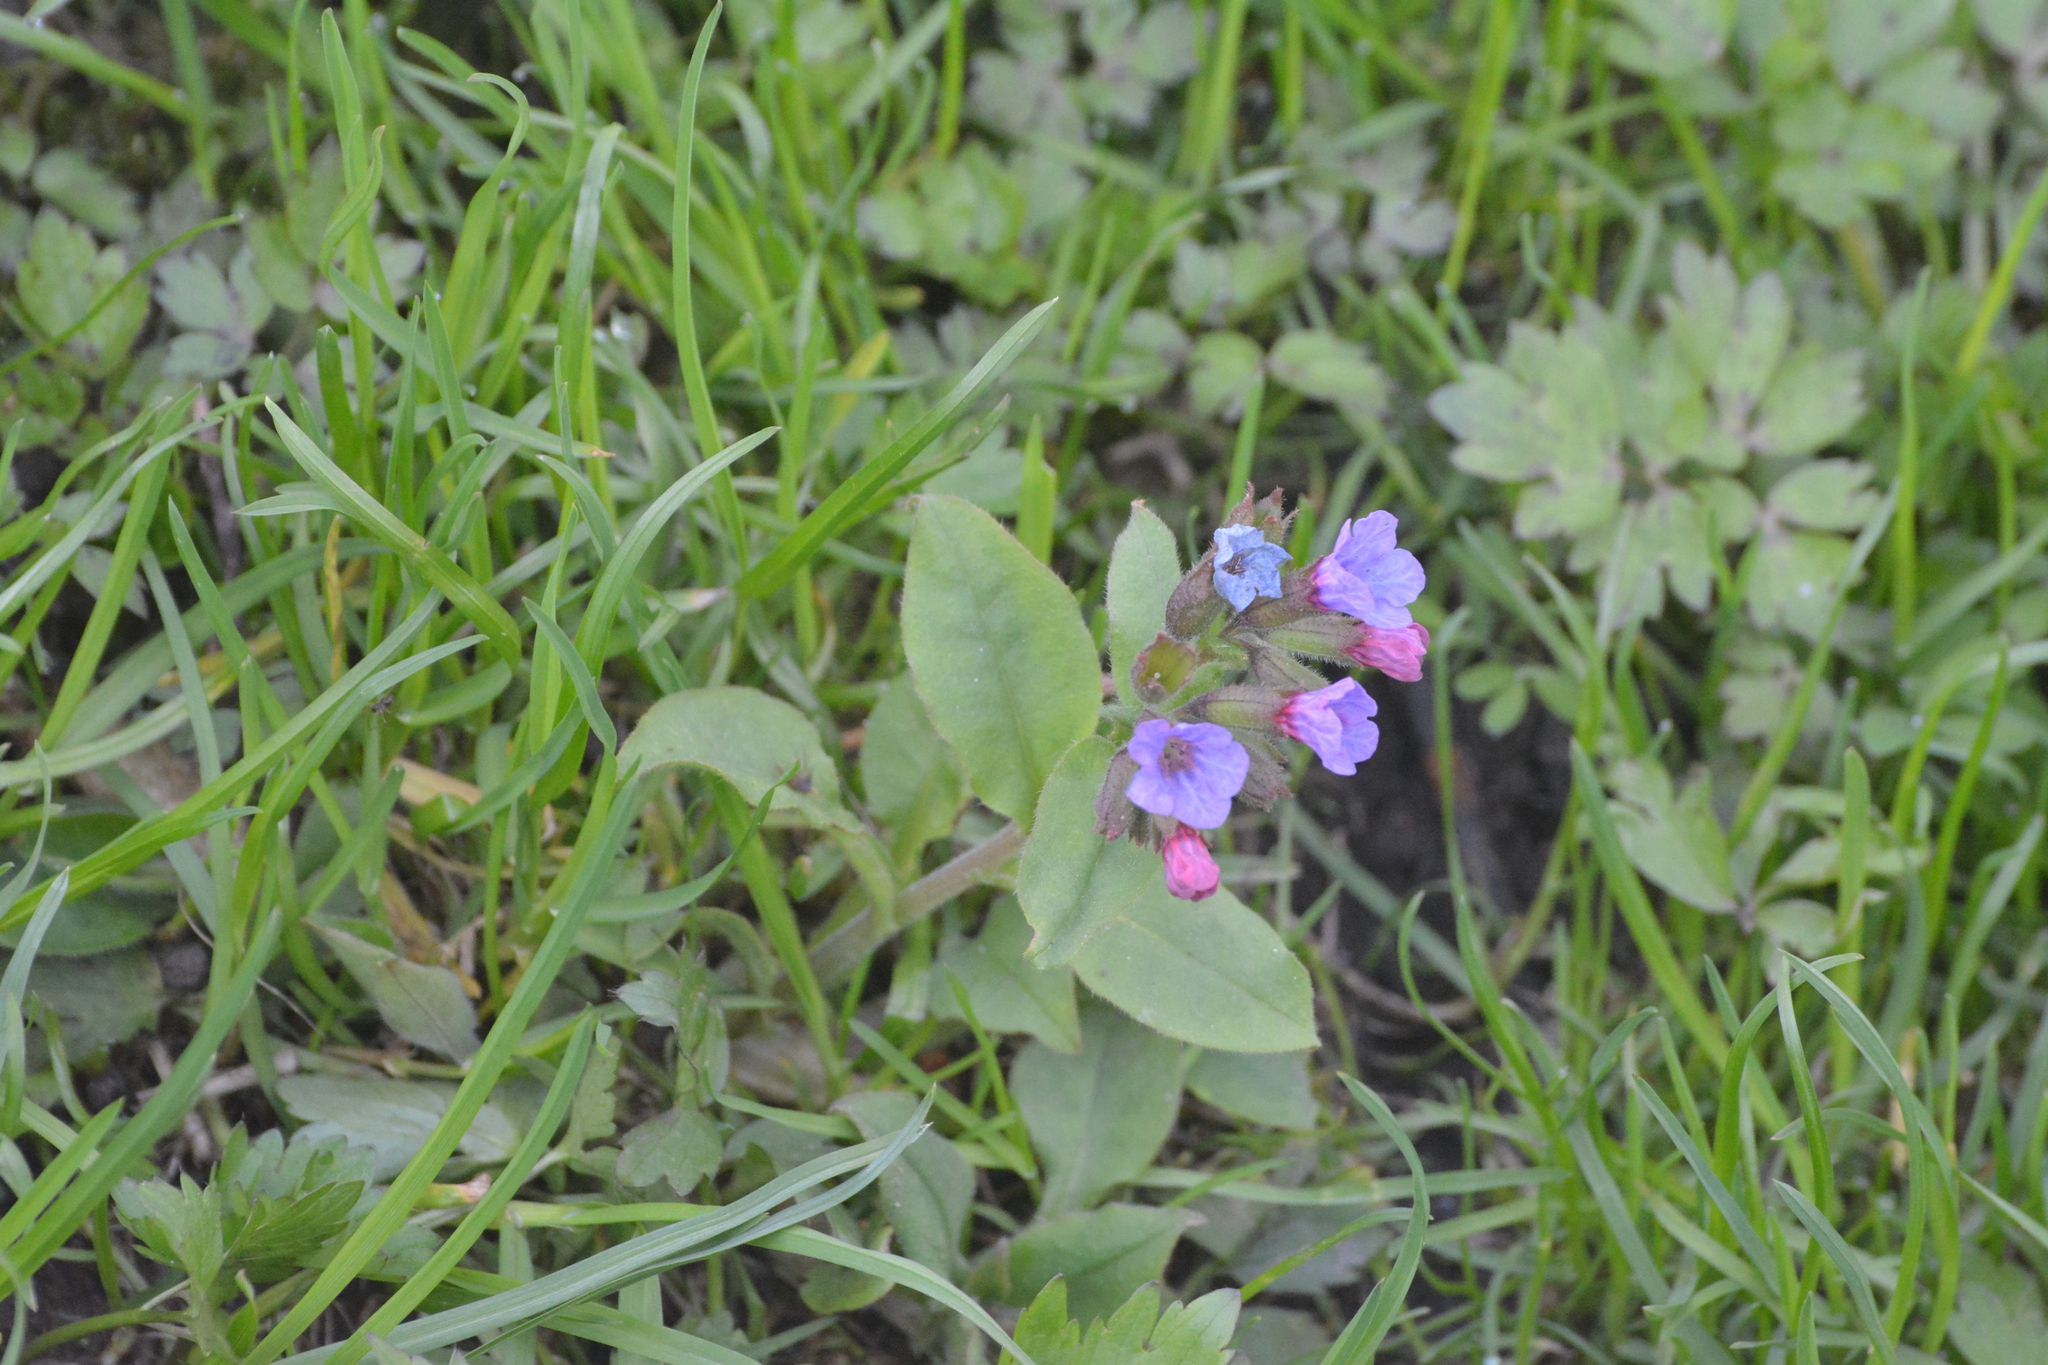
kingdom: Plantae
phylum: Tracheophyta
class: Magnoliopsida
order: Boraginales
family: Boraginaceae
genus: Pulmonaria
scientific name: Pulmonaria obscura
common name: Suffolk lungwort
